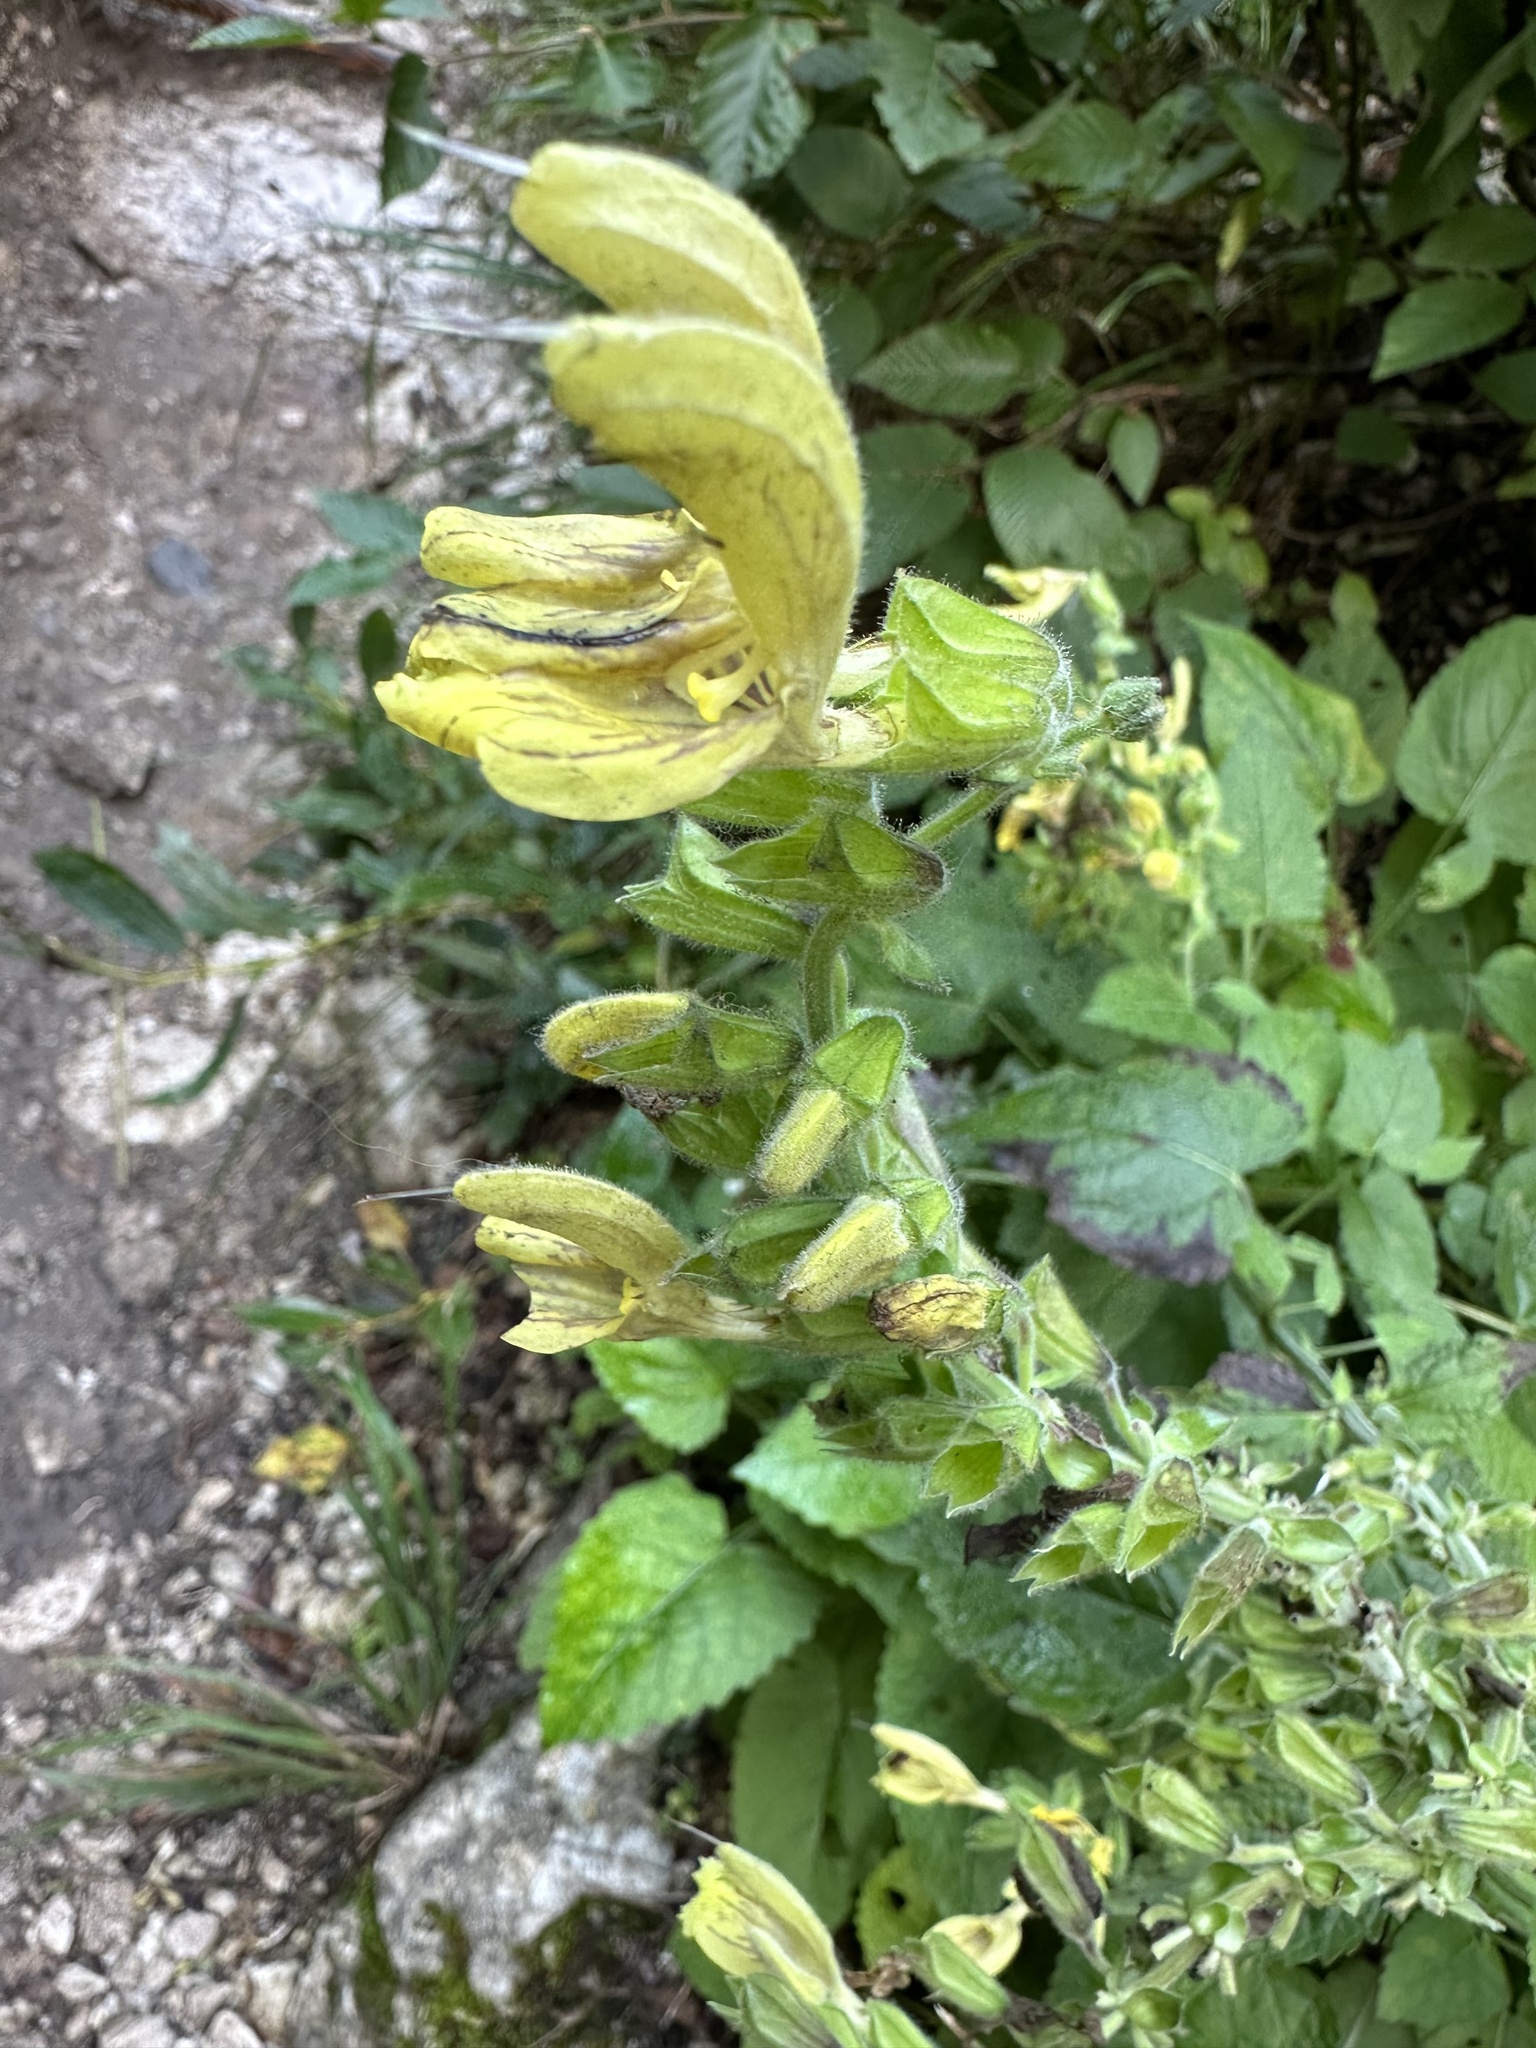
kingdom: Plantae
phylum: Tracheophyta
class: Magnoliopsida
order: Lamiales
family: Lamiaceae
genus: Salvia
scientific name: Salvia glutinosa
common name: Sticky clary
